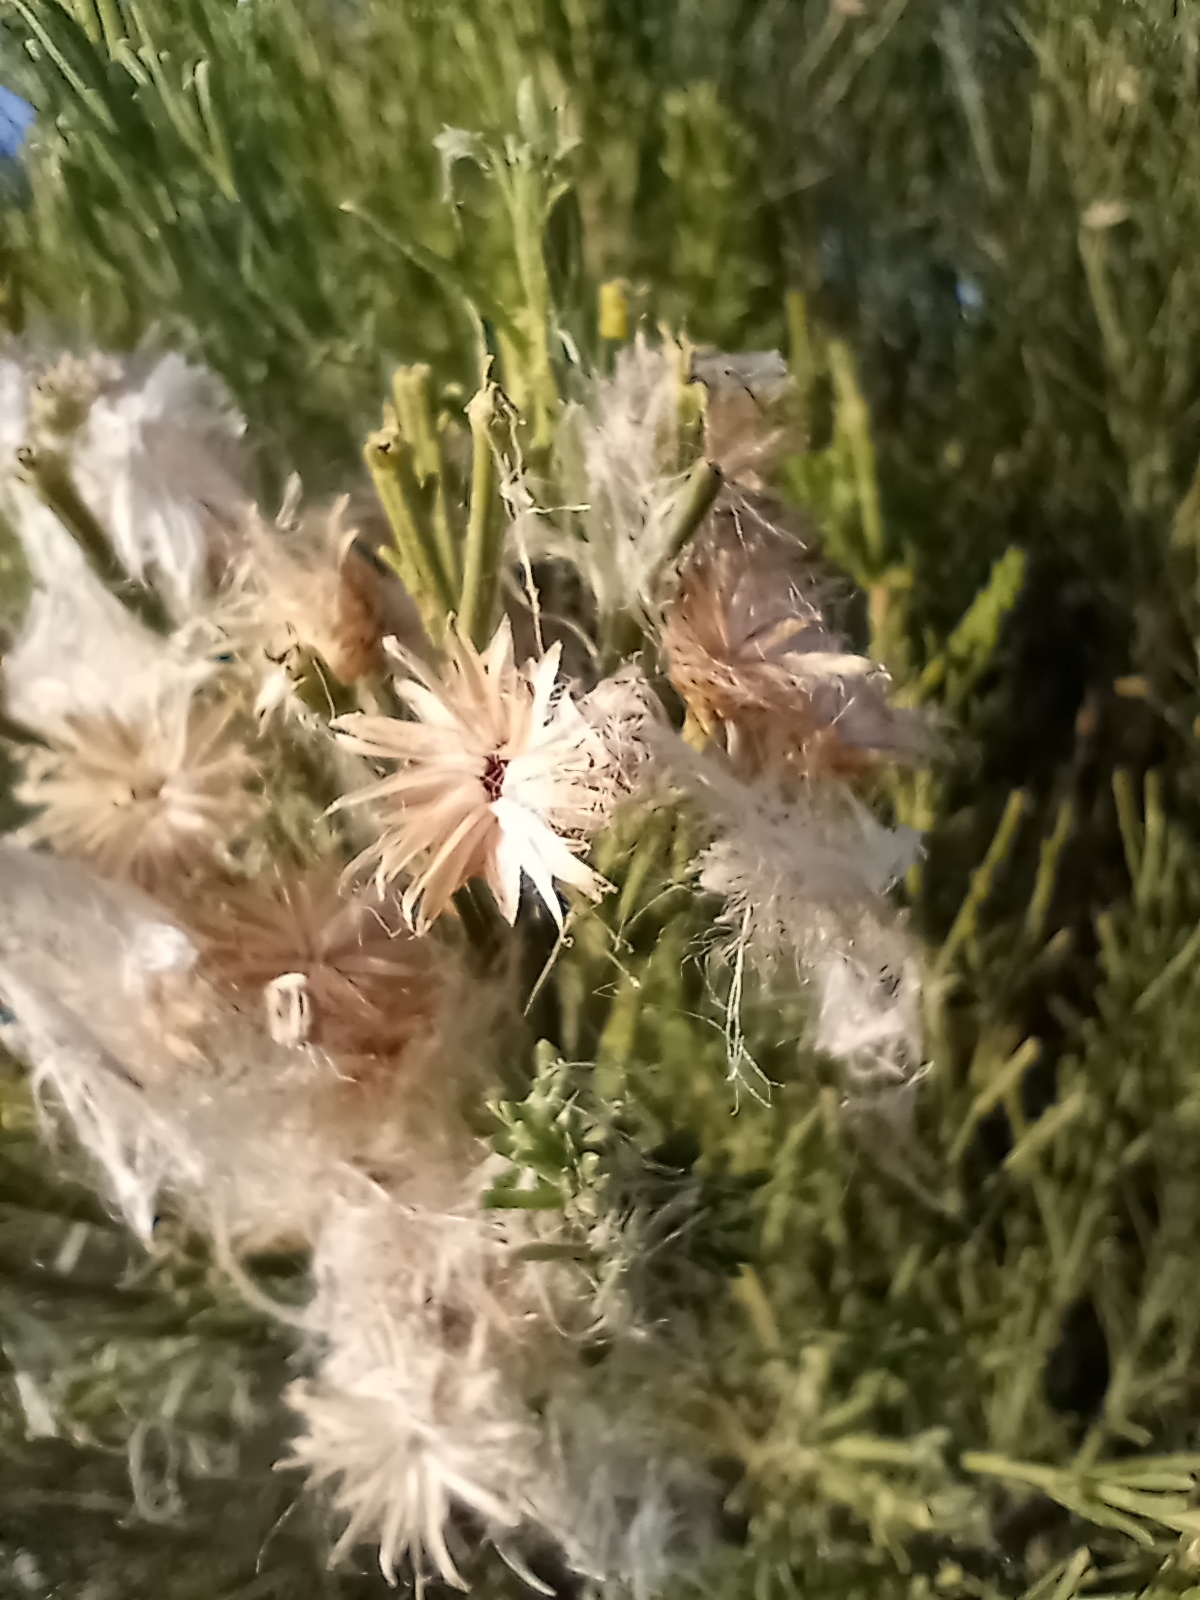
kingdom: Plantae
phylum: Tracheophyta
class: Magnoliopsida
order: Asterales
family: Asteraceae
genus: Baccharis
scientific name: Baccharis sarothroides
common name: Desert-broom
